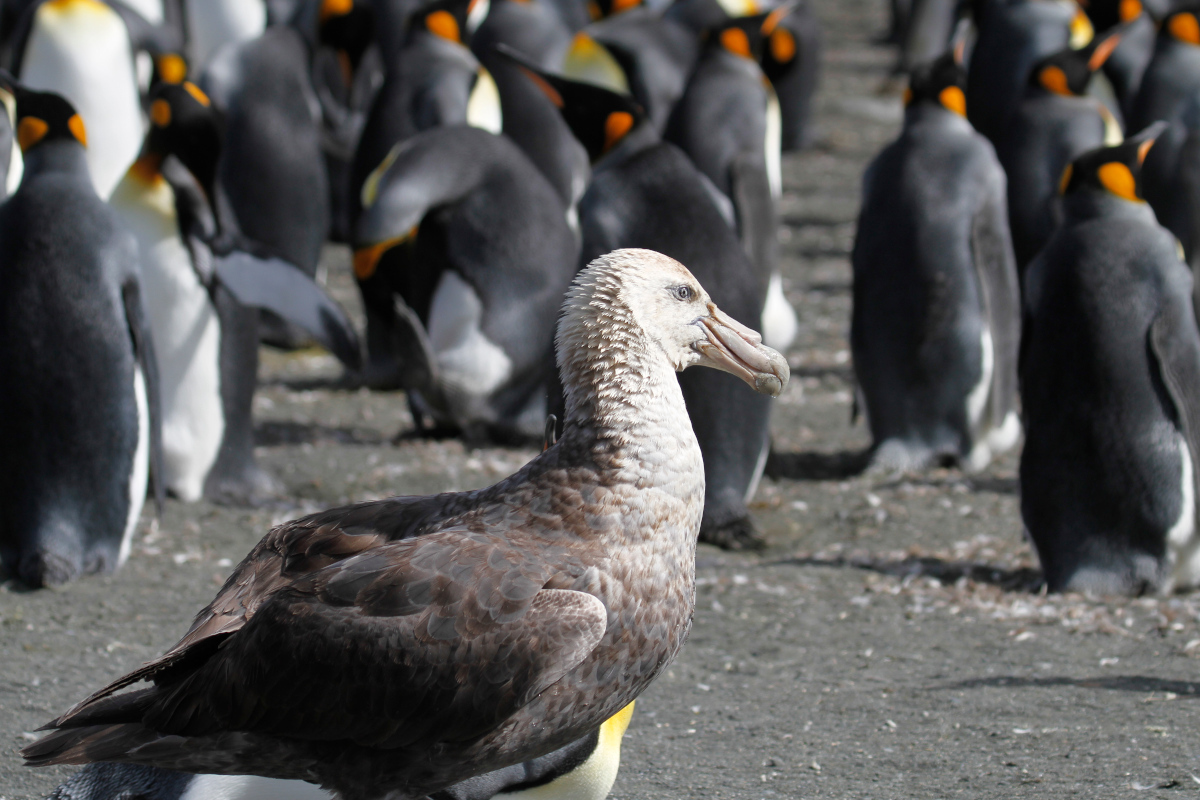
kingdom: Animalia
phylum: Chordata
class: Aves
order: Procellariiformes
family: Procellariidae
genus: Macronectes
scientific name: Macronectes giganteus
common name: Southern giant petrel
